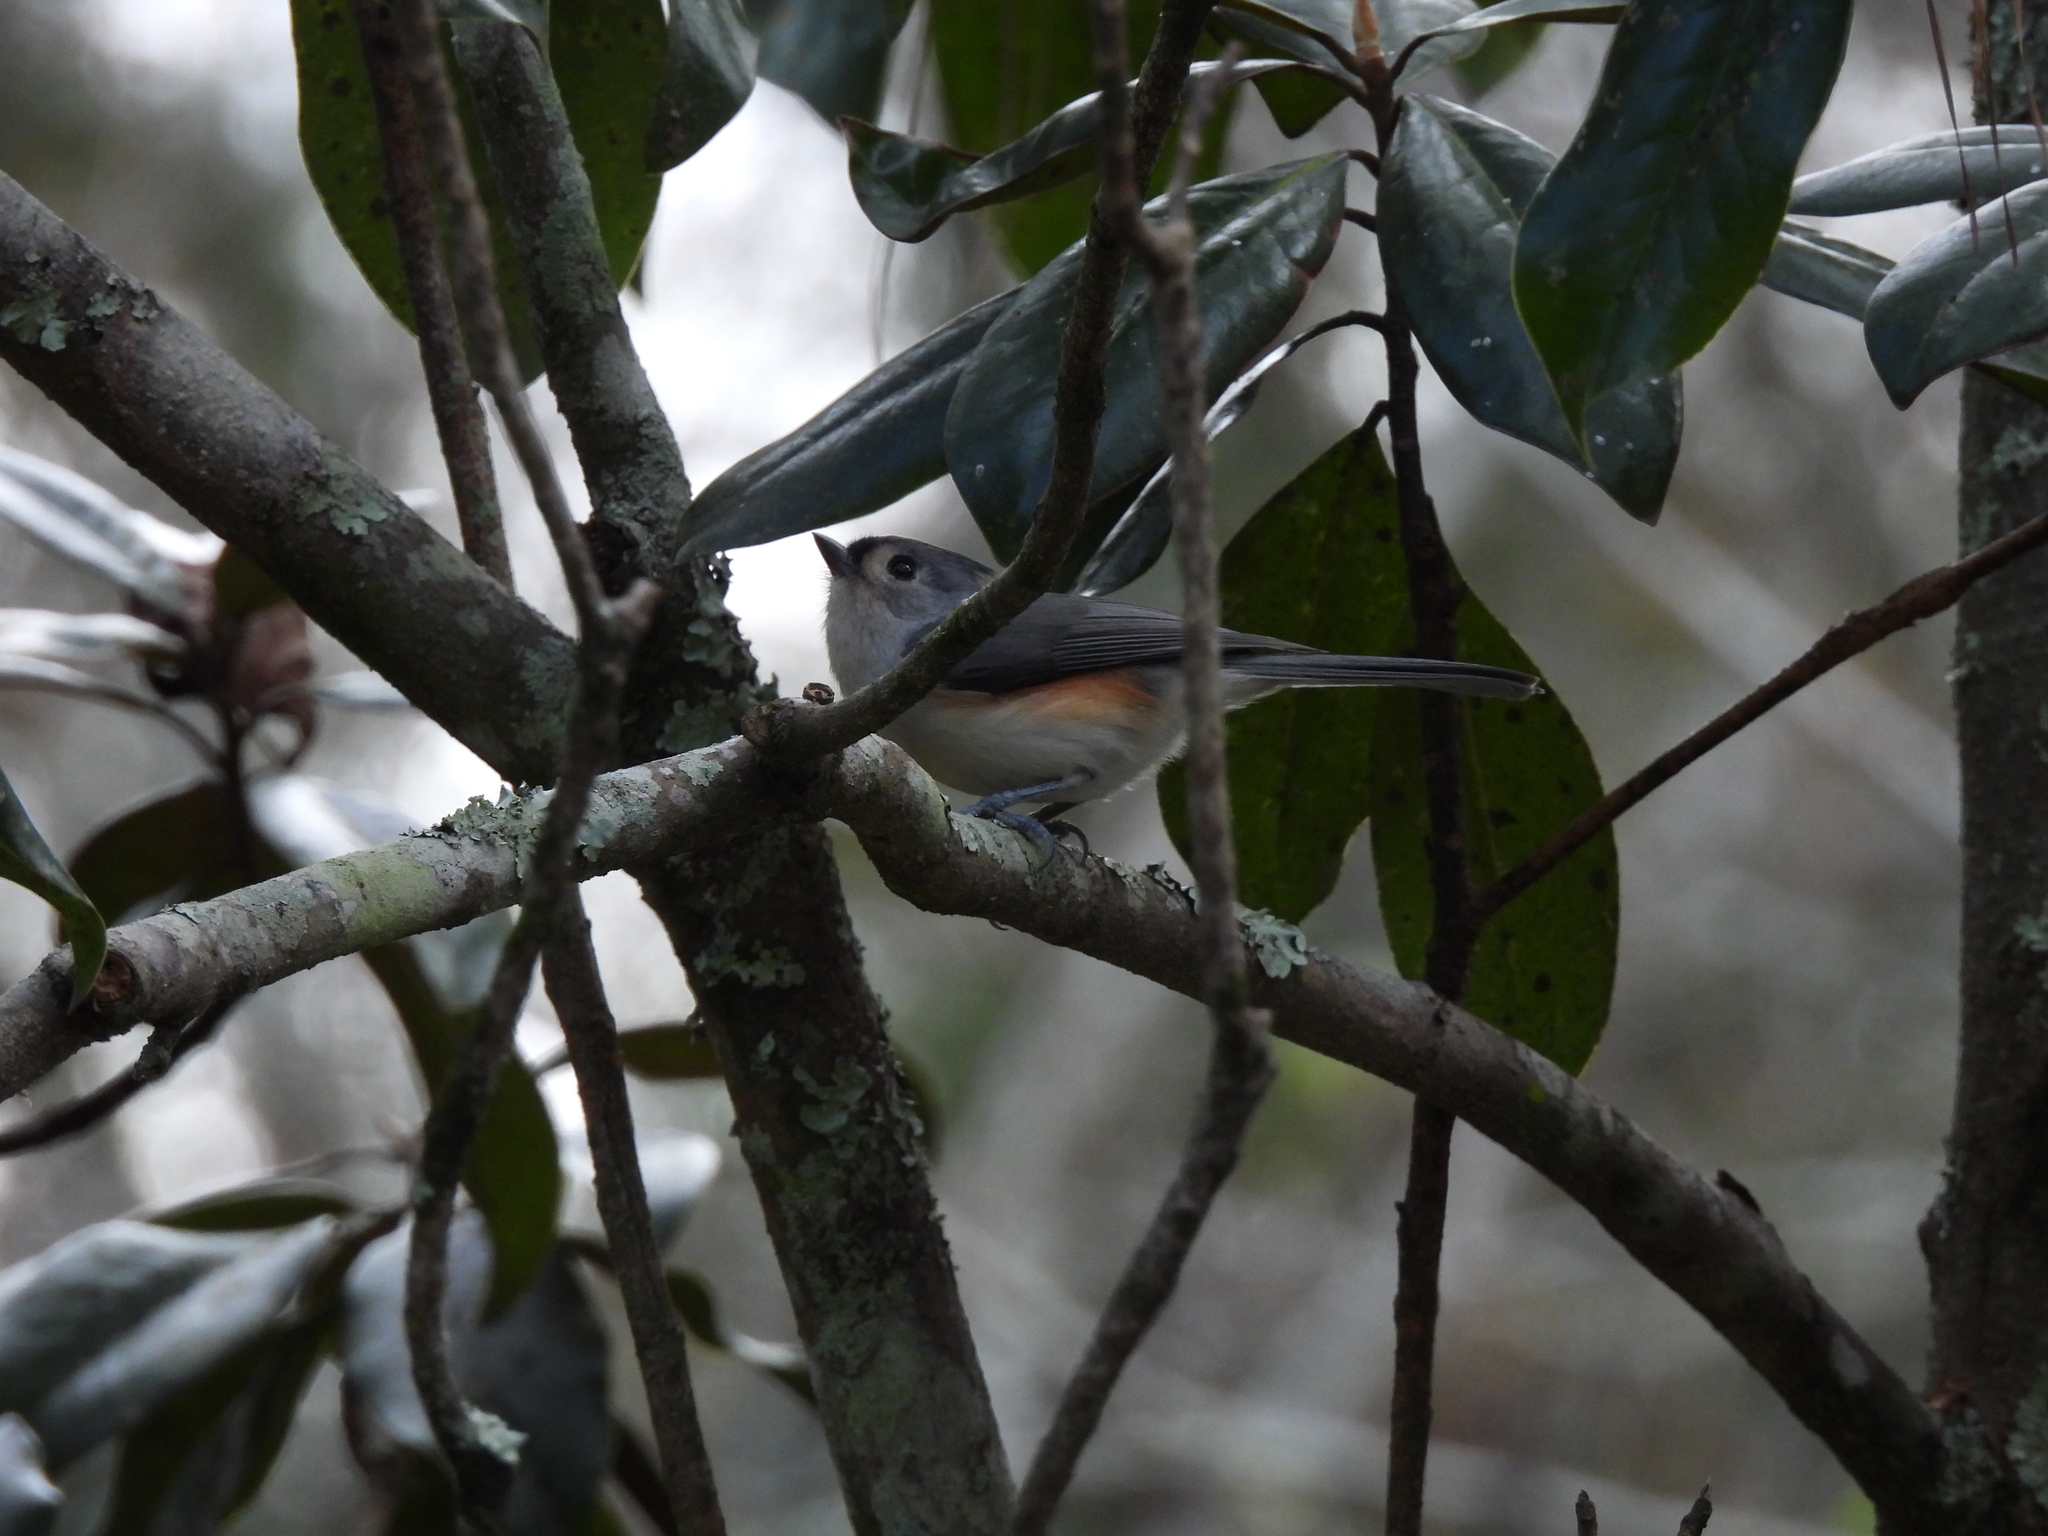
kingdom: Animalia
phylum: Chordata
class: Aves
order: Passeriformes
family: Paridae
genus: Baeolophus
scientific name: Baeolophus bicolor
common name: Tufted titmouse
